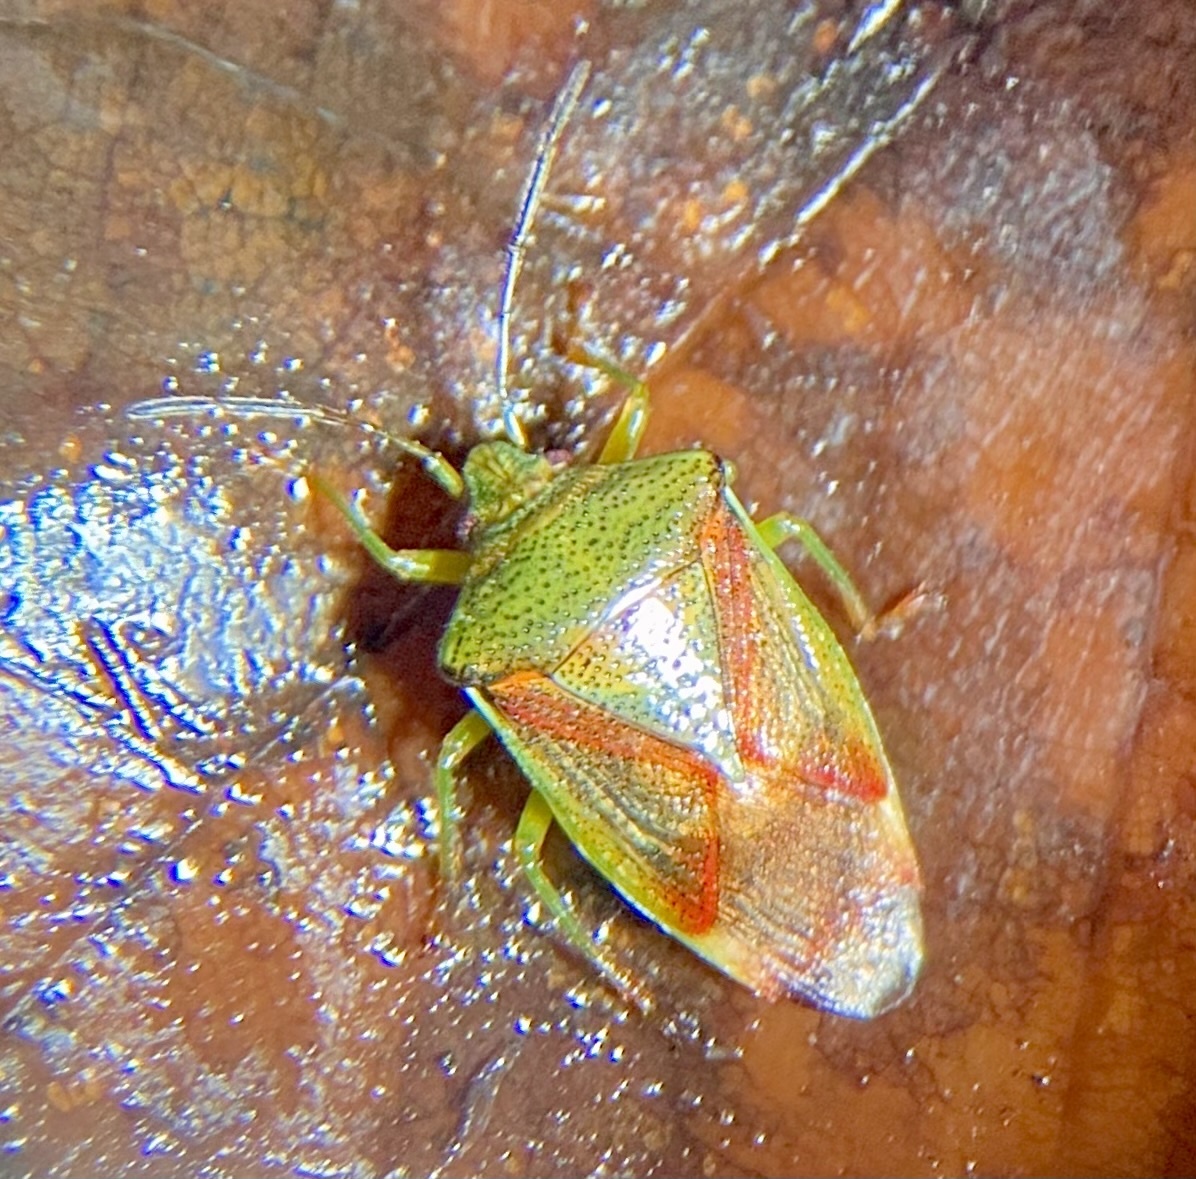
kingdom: Animalia
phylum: Arthropoda
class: Insecta
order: Hemiptera
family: Acanthosomatidae
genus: Elasmostethus
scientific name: Elasmostethus interstinctus
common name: Birch shieldbug
